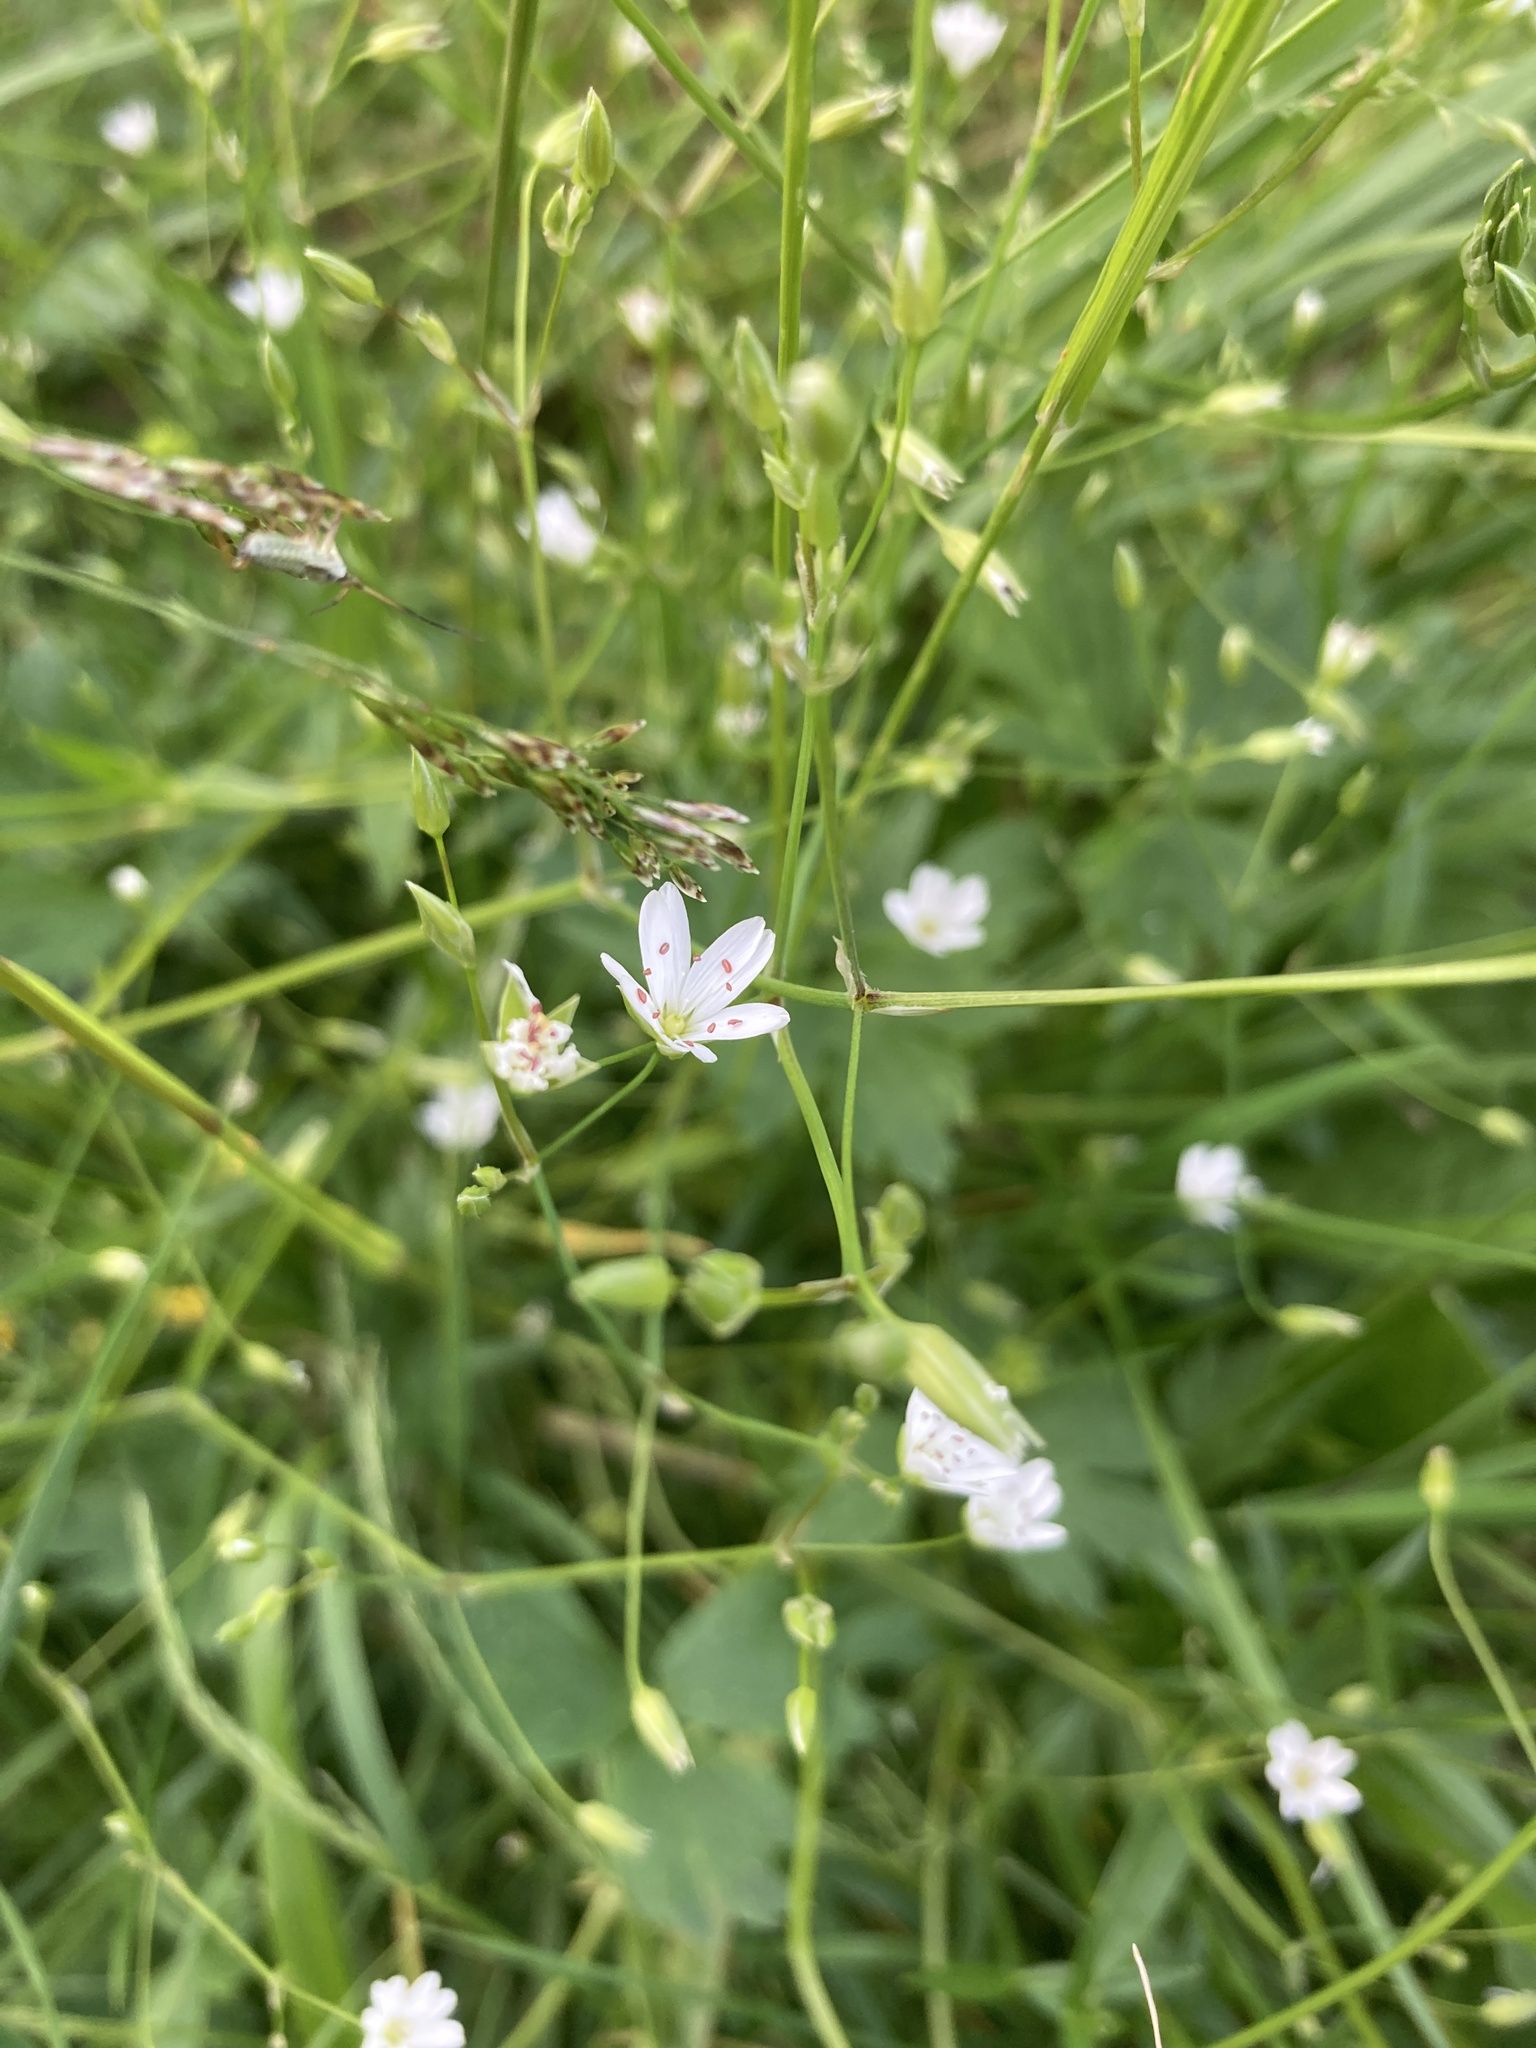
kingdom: Plantae
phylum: Tracheophyta
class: Magnoliopsida
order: Caryophyllales
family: Caryophyllaceae
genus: Stellaria
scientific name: Stellaria graminea
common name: Grass-like starwort
